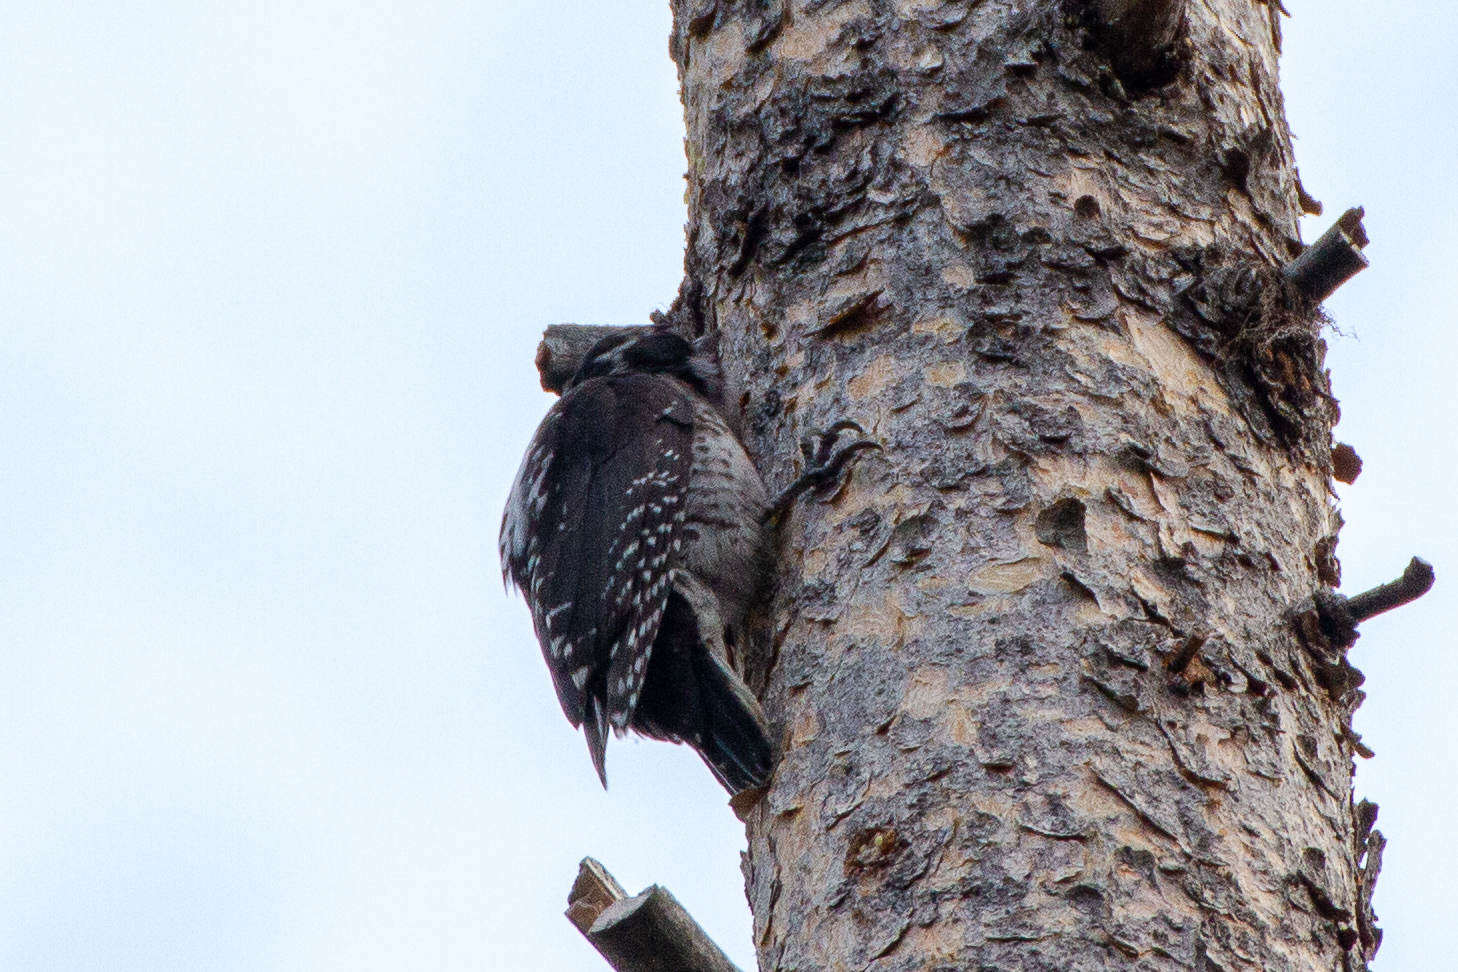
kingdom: Animalia
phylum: Chordata
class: Aves
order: Piciformes
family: Picidae
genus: Picoides
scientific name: Picoides dorsalis
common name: American three-toed woodpecker
